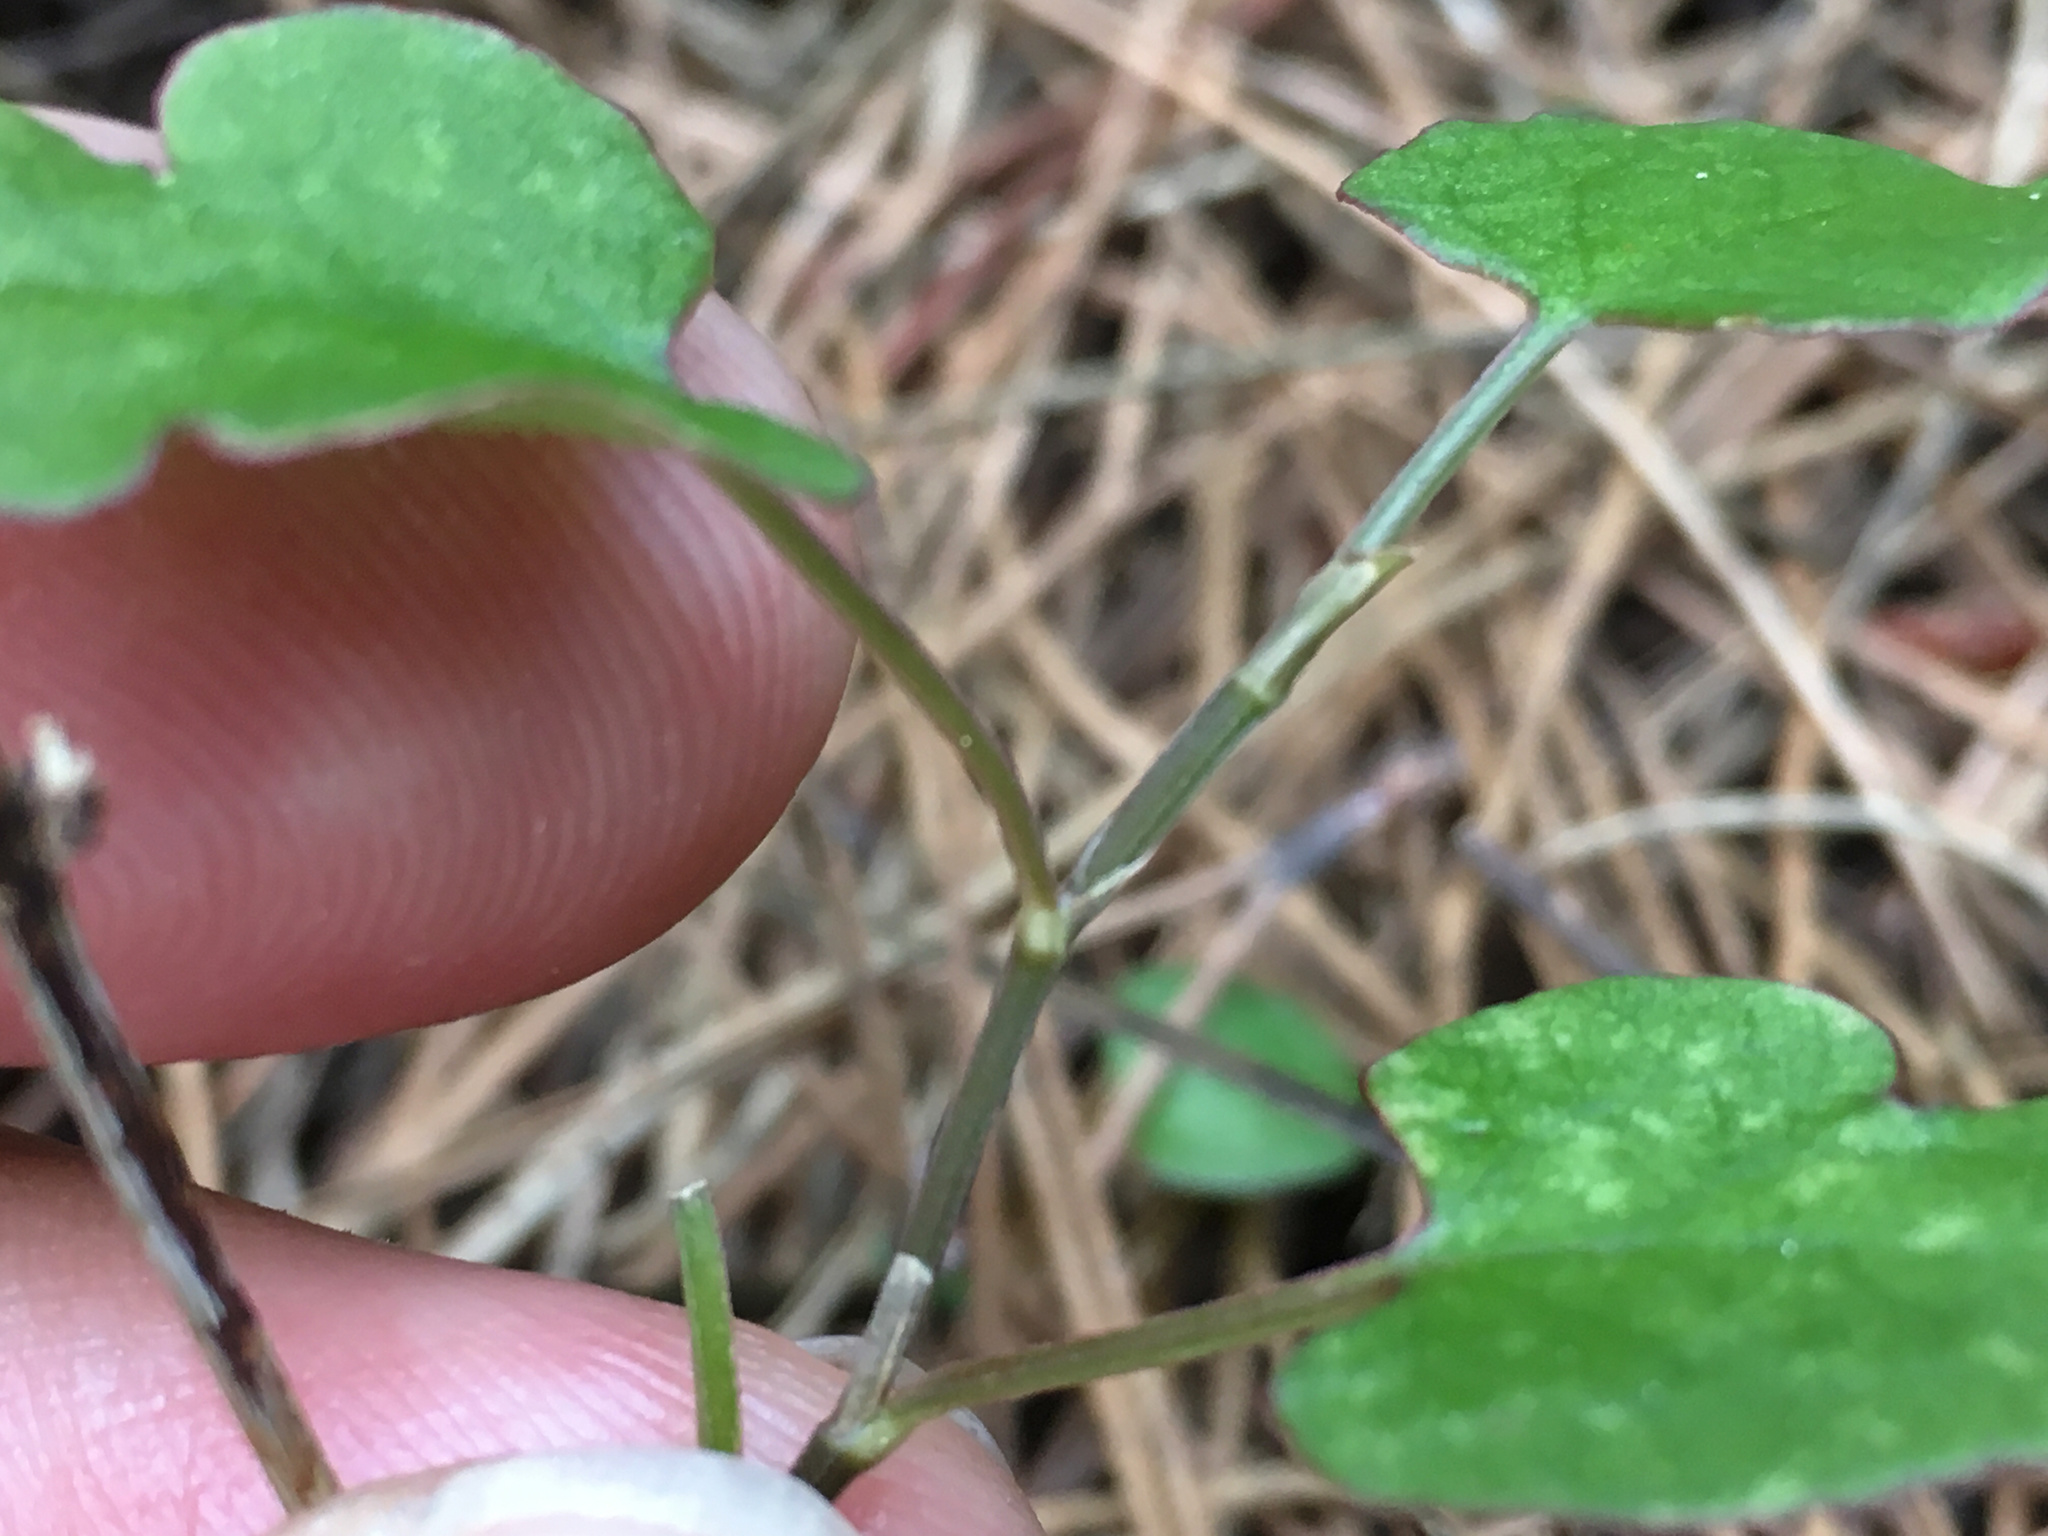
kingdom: Plantae
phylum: Tracheophyta
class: Magnoliopsida
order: Caryophyllales
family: Polygonaceae
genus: Muehlenbeckia
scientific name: Muehlenbeckia australis
